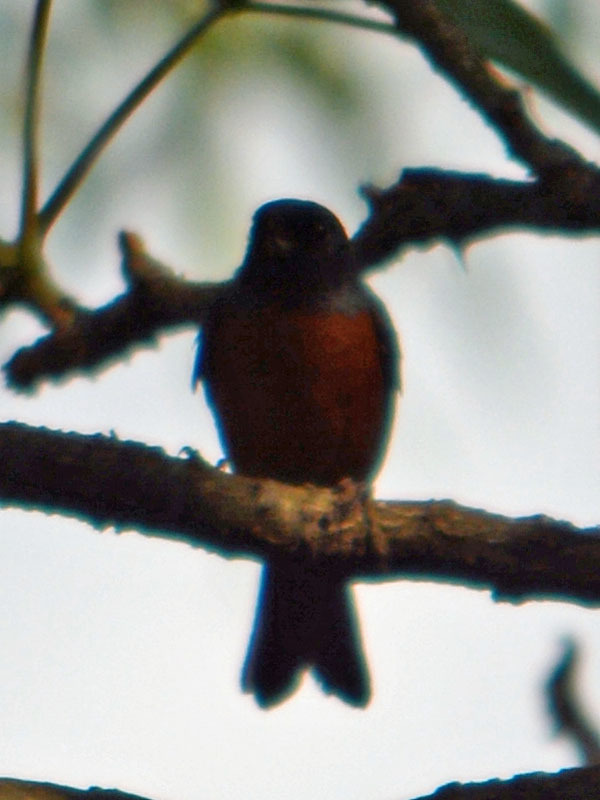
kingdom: Animalia
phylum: Chordata
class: Aves
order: Passeriformes
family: Thraupidae
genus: Diglossa
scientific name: Diglossa baritula
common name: Cinnamon-bellied flowerpiercer
